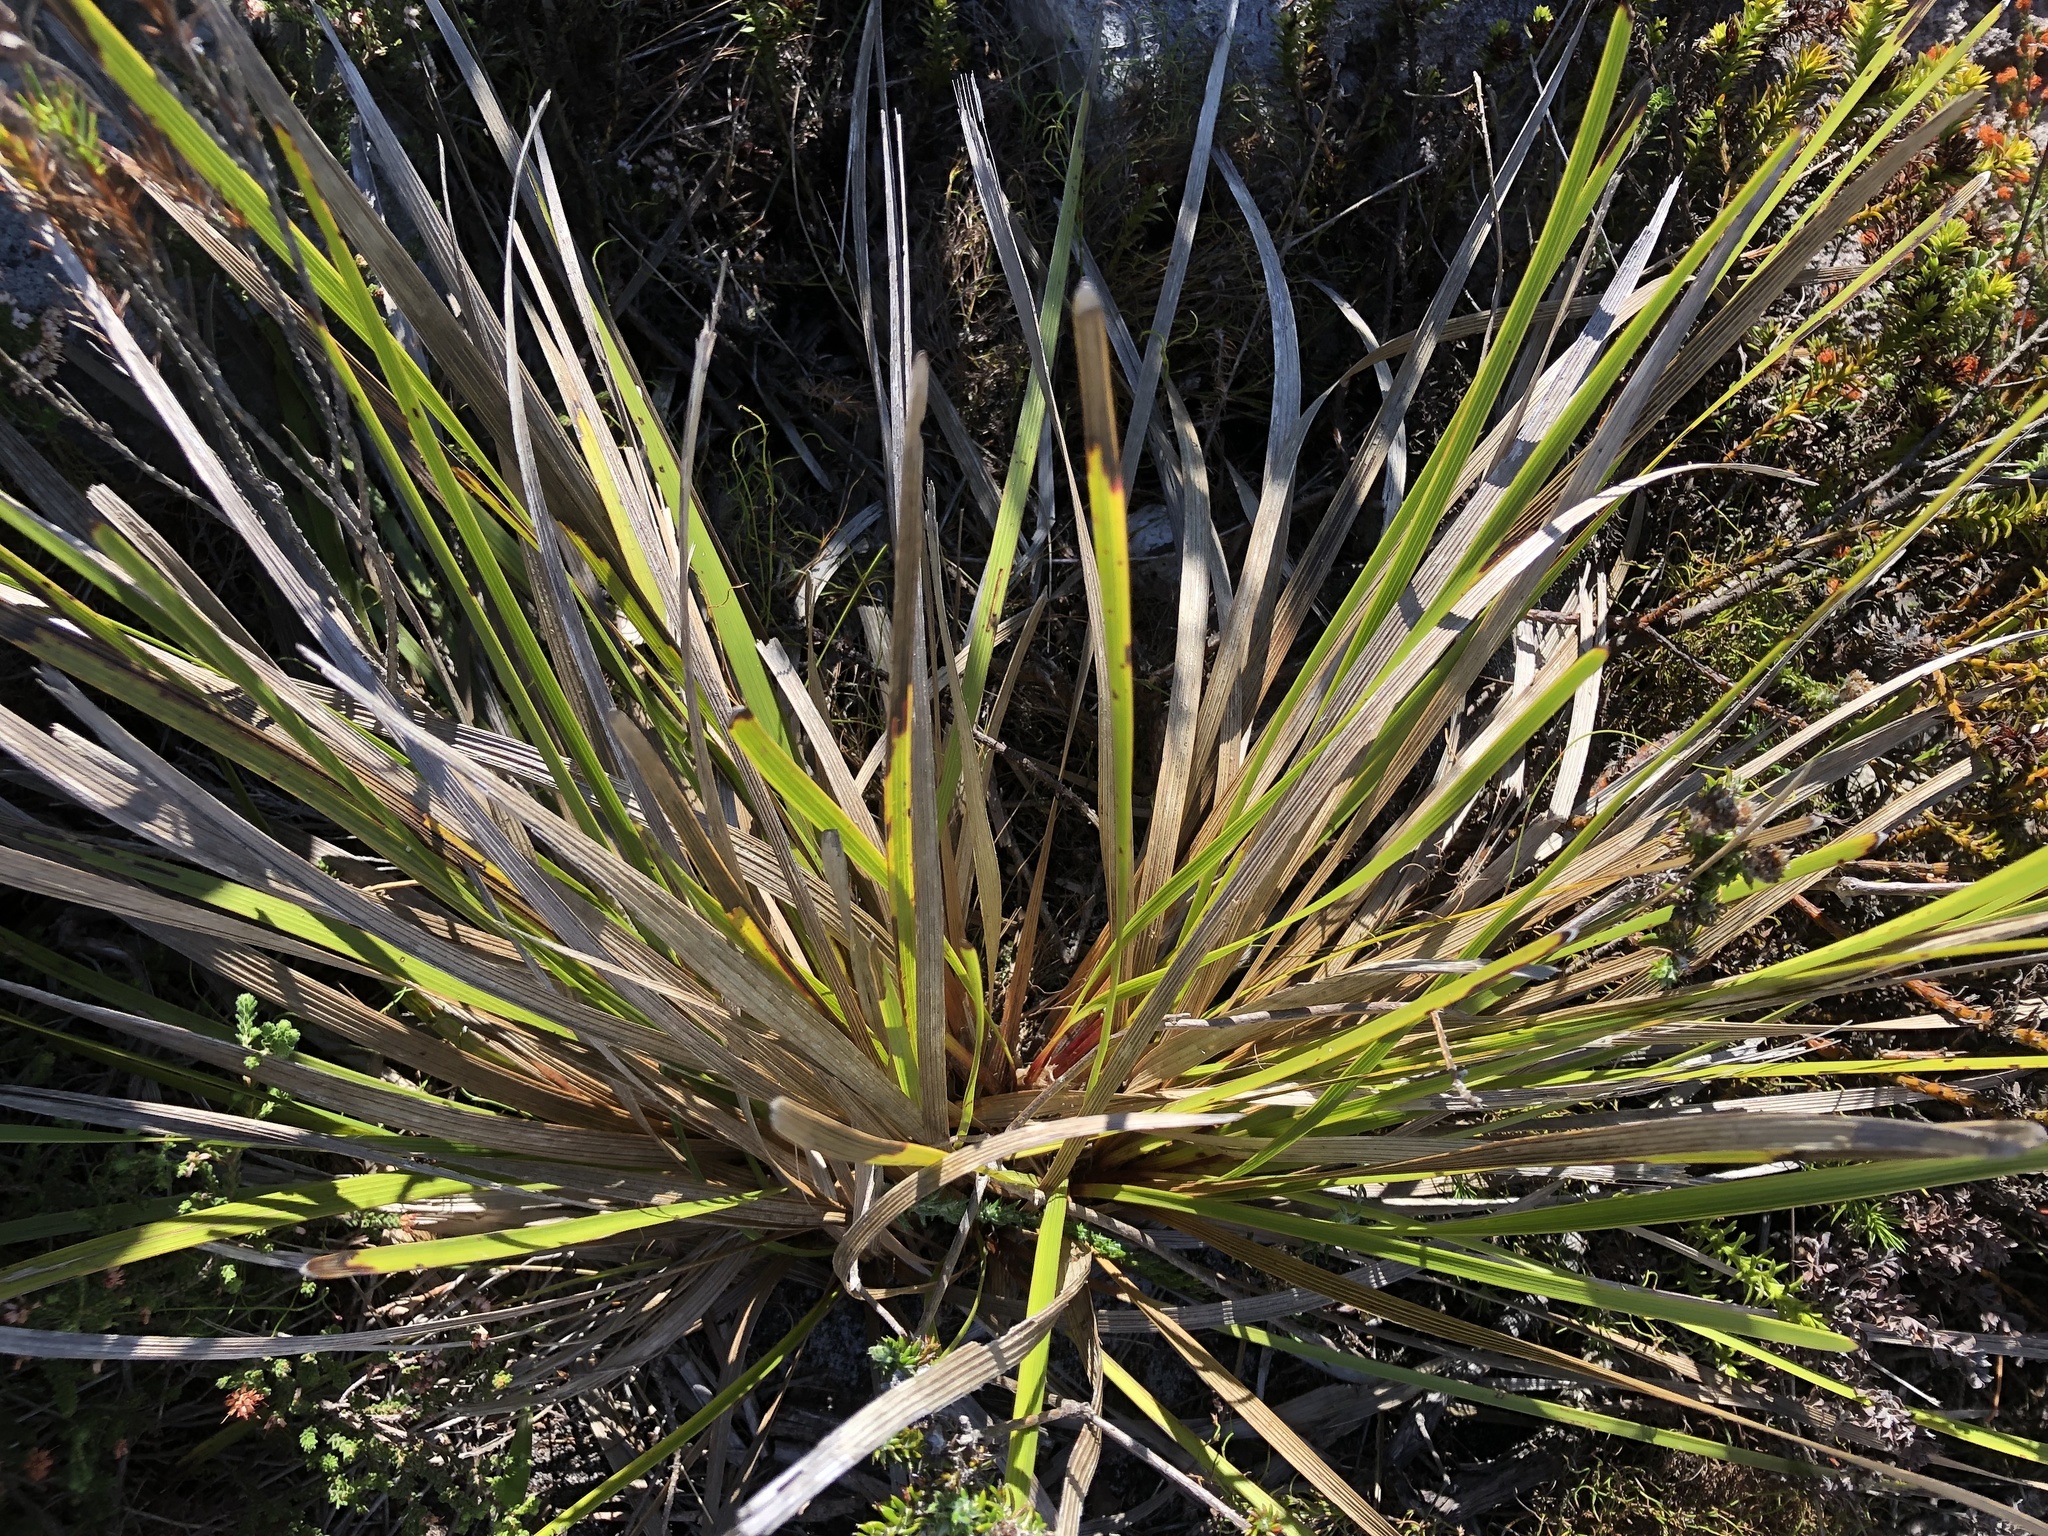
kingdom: Plantae
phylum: Tracheophyta
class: Magnoliopsida
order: Asterales
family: Asteraceae
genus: Corymbium
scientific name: Corymbium glabrum
